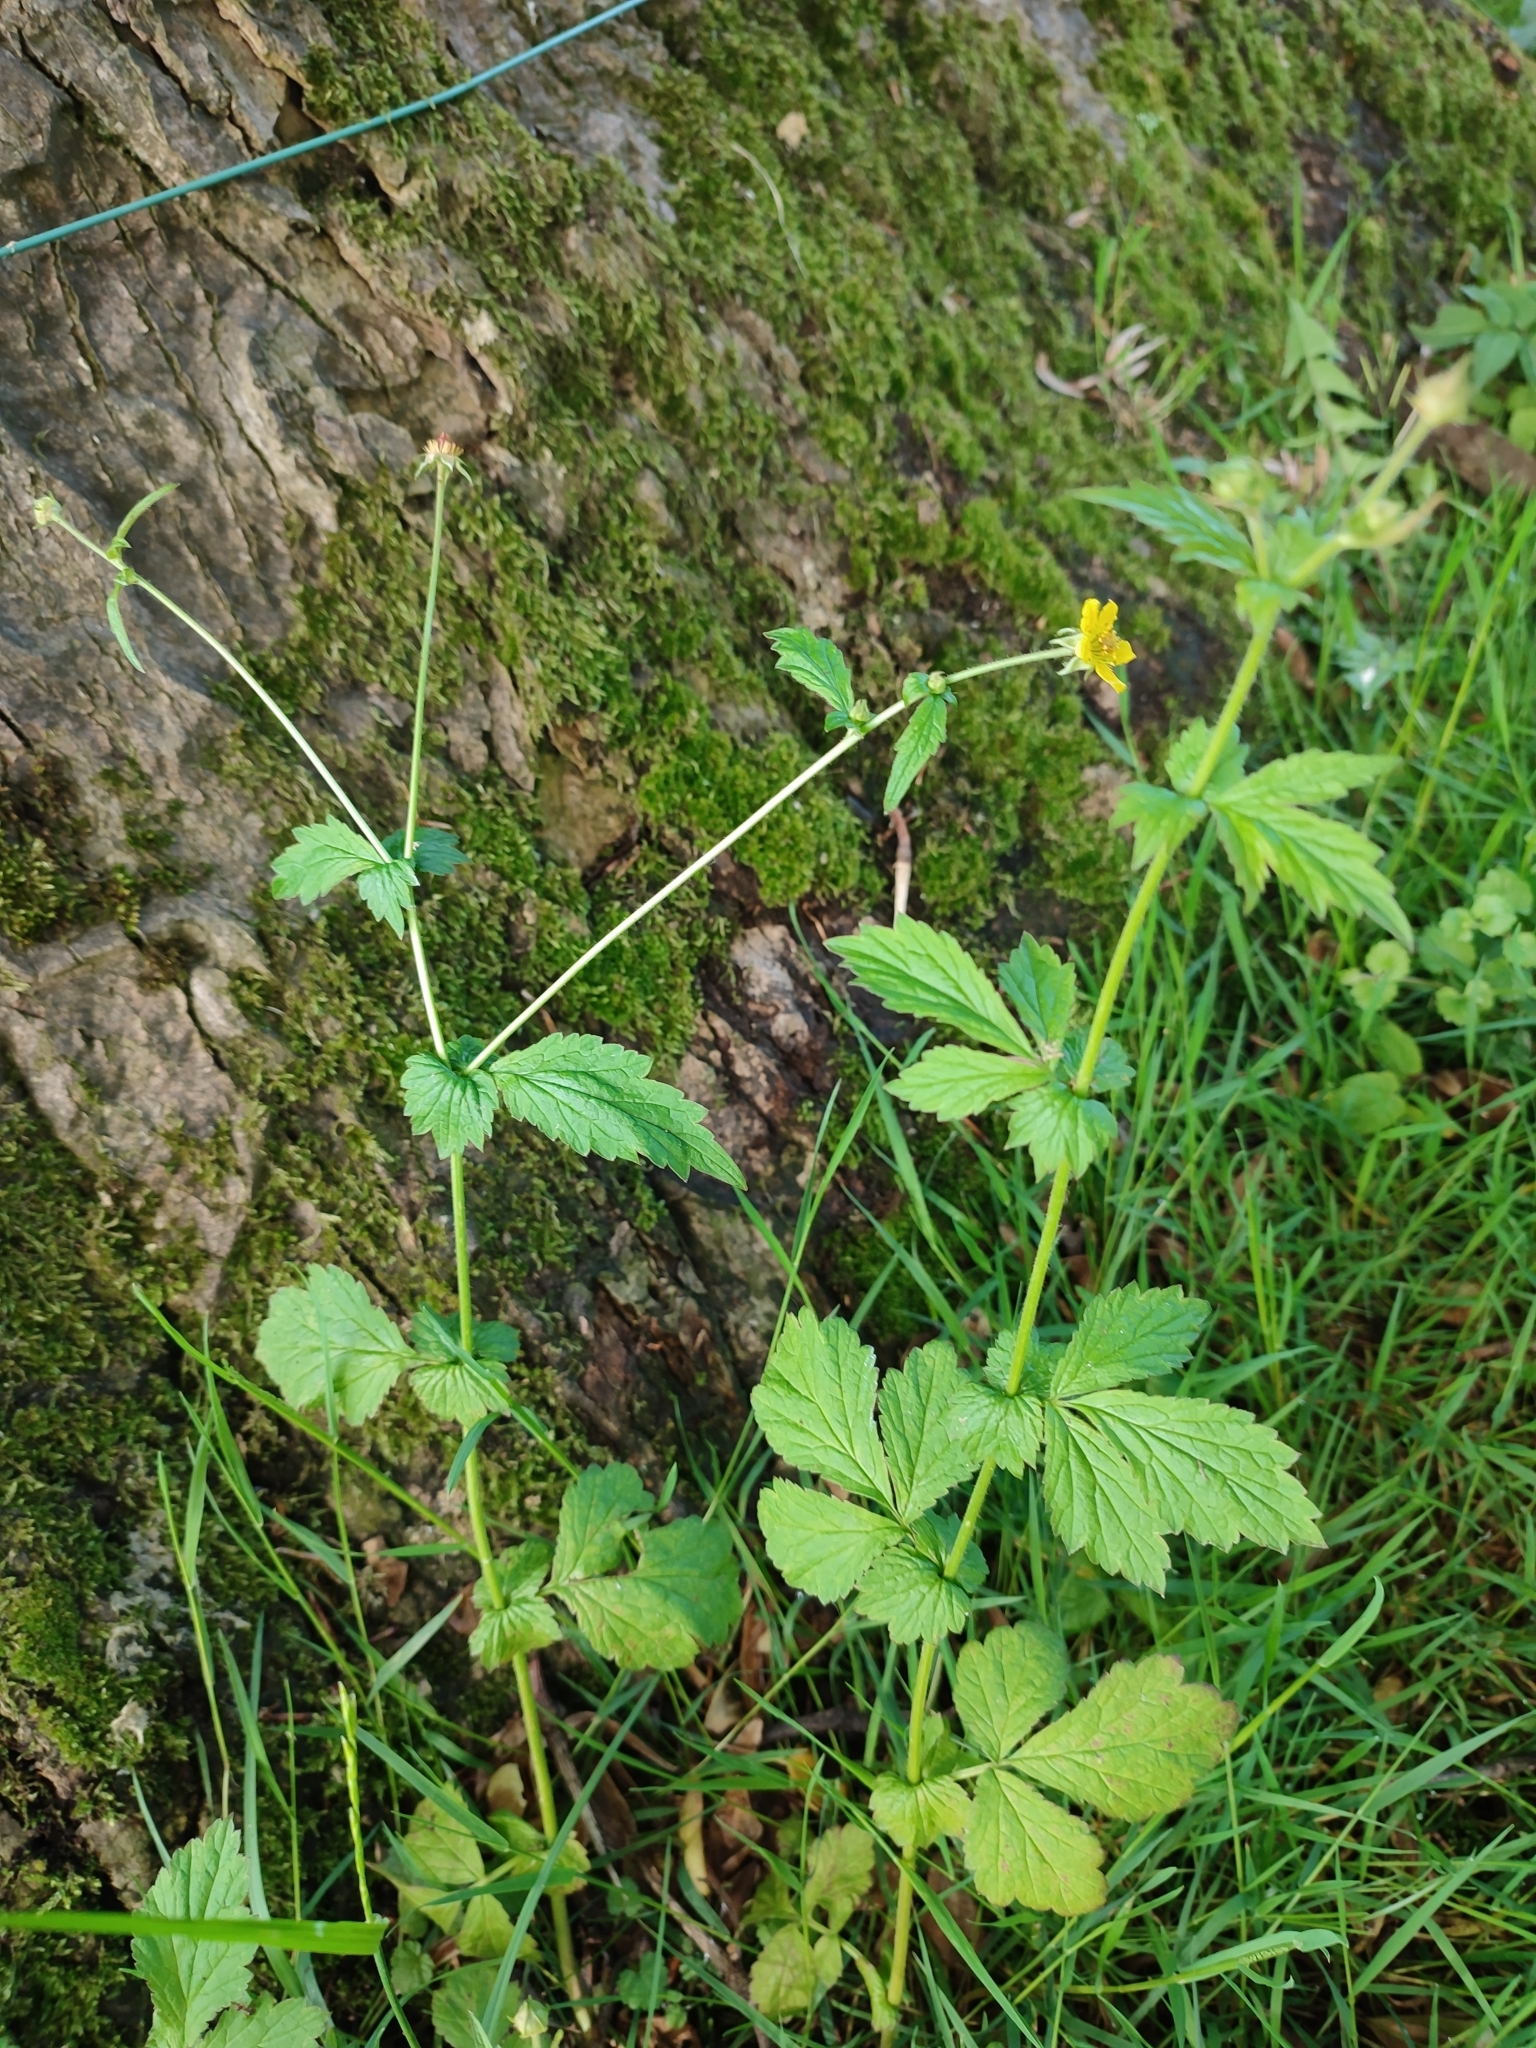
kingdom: Plantae
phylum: Tracheophyta
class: Magnoliopsida
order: Rosales
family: Rosaceae
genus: Geum
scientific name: Geum urbanum
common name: Wood avens
